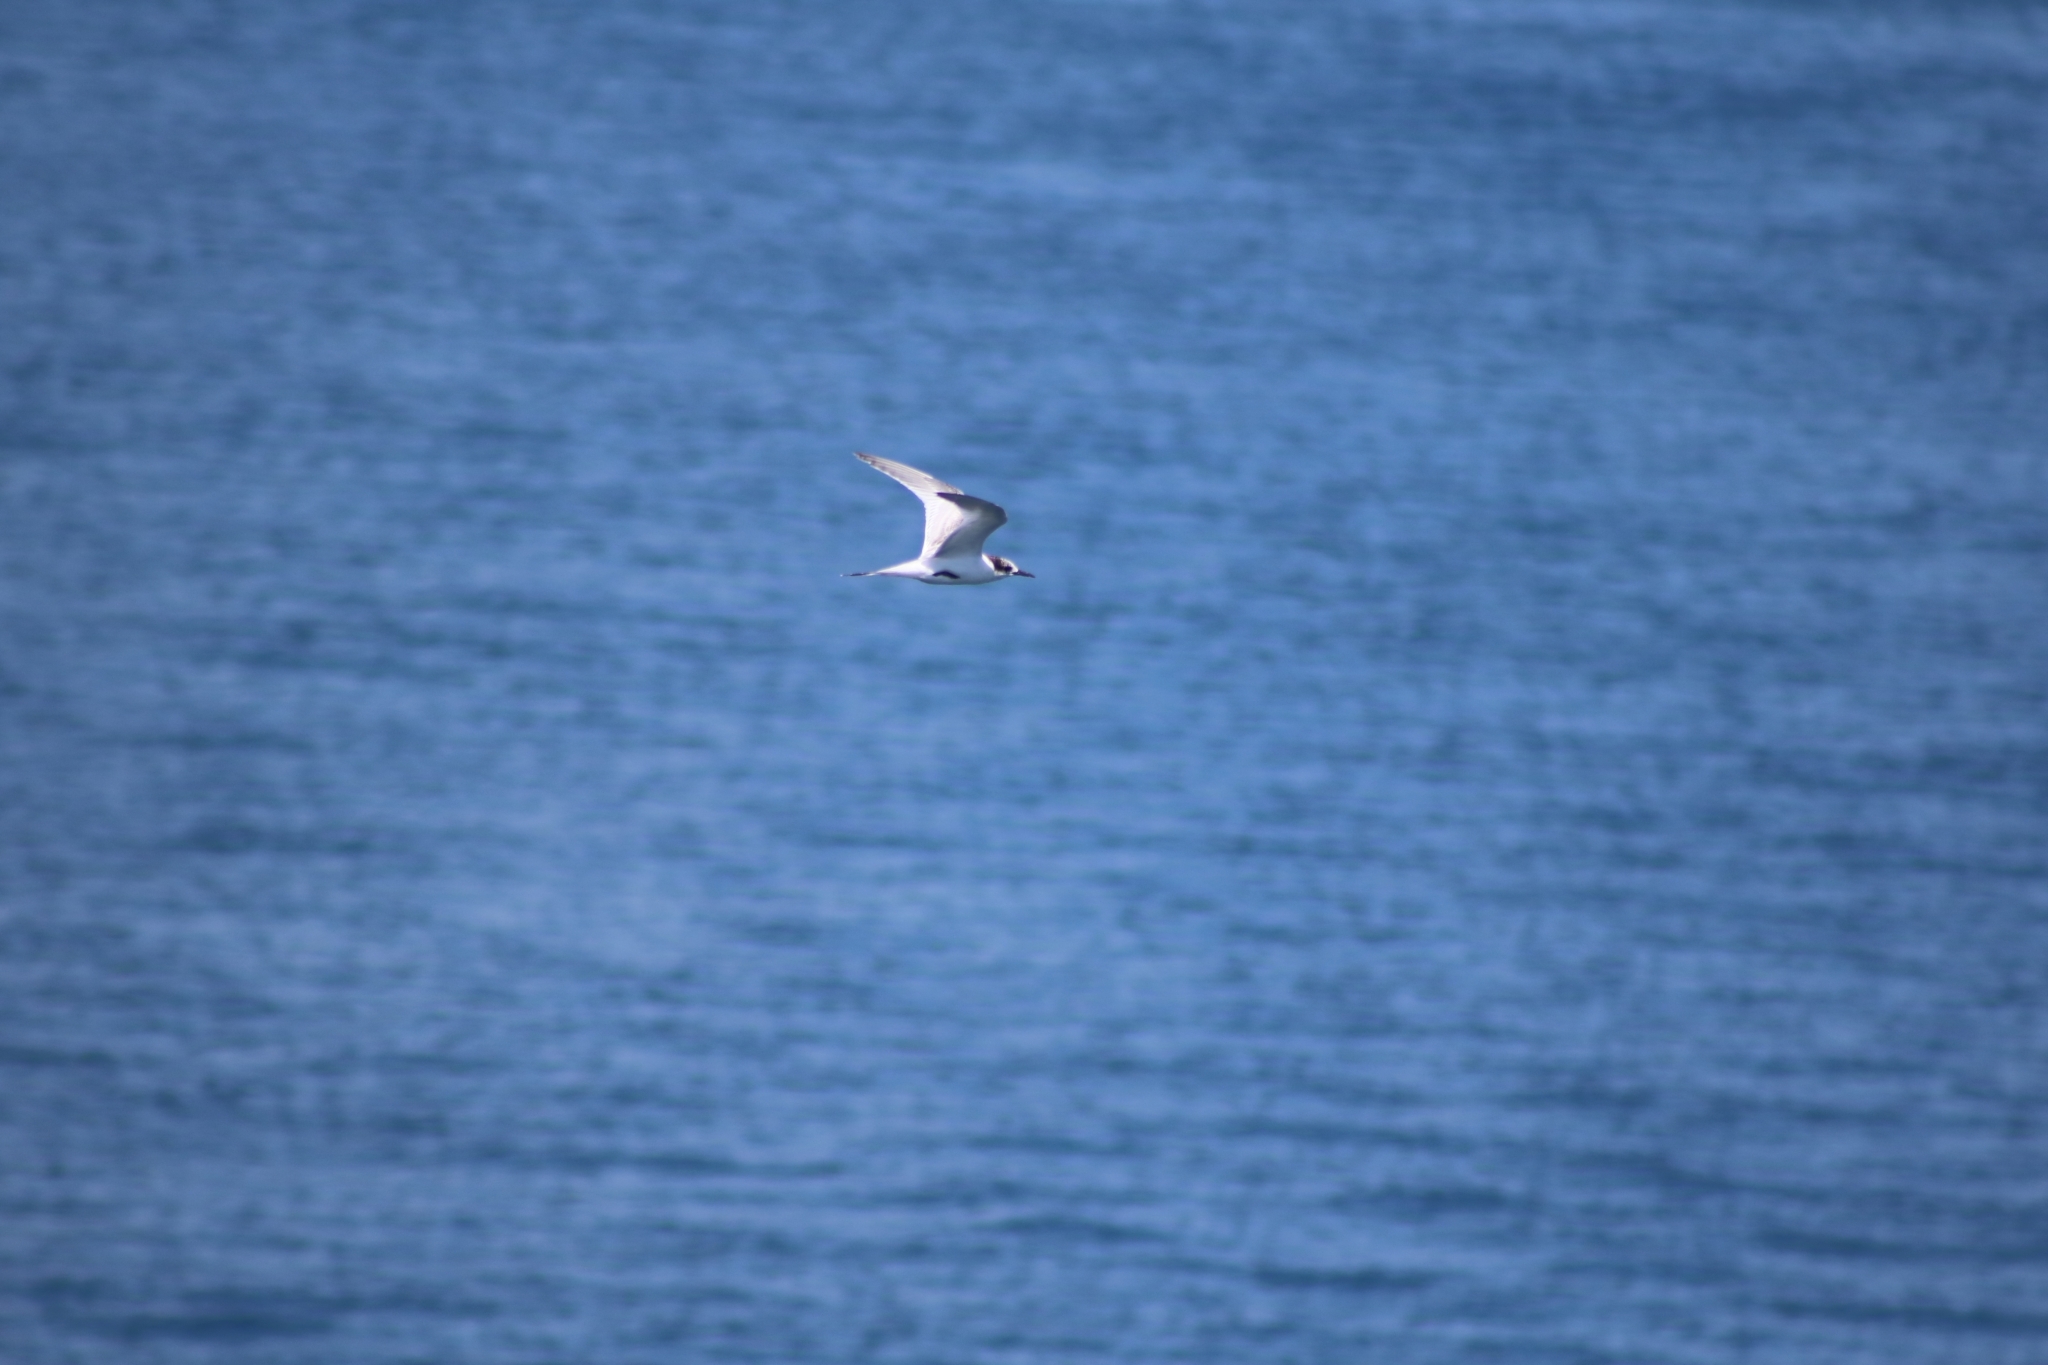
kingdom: Animalia
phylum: Chordata
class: Aves
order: Charadriiformes
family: Laridae
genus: Sterna
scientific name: Sterna striata
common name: White-fronted tern
